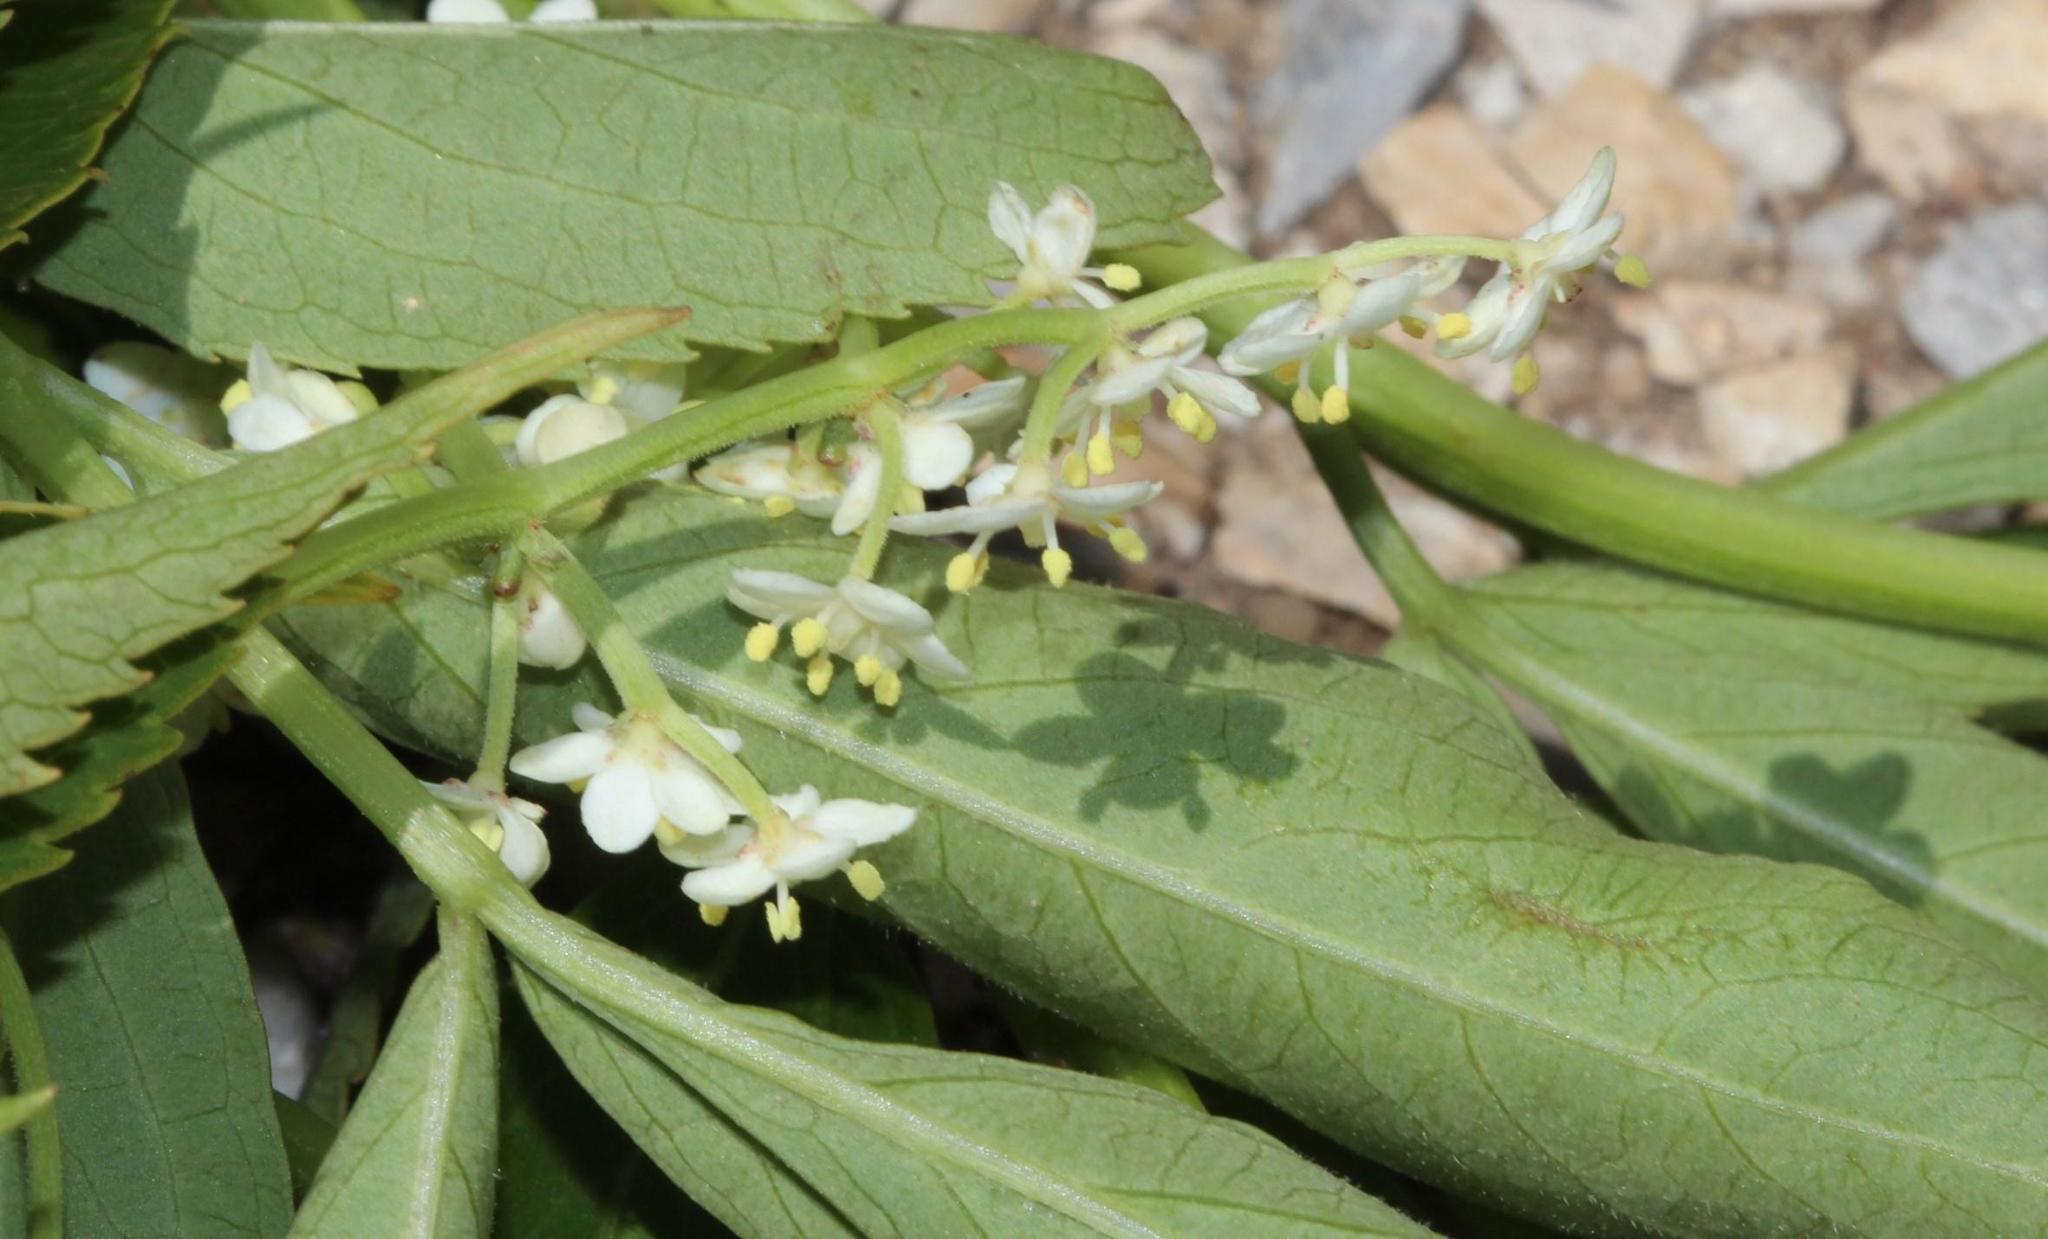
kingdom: Plantae
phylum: Tracheophyta
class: Magnoliopsida
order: Dipsacales
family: Viburnaceae
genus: Sambucus
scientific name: Sambucus nigra
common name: Elder
